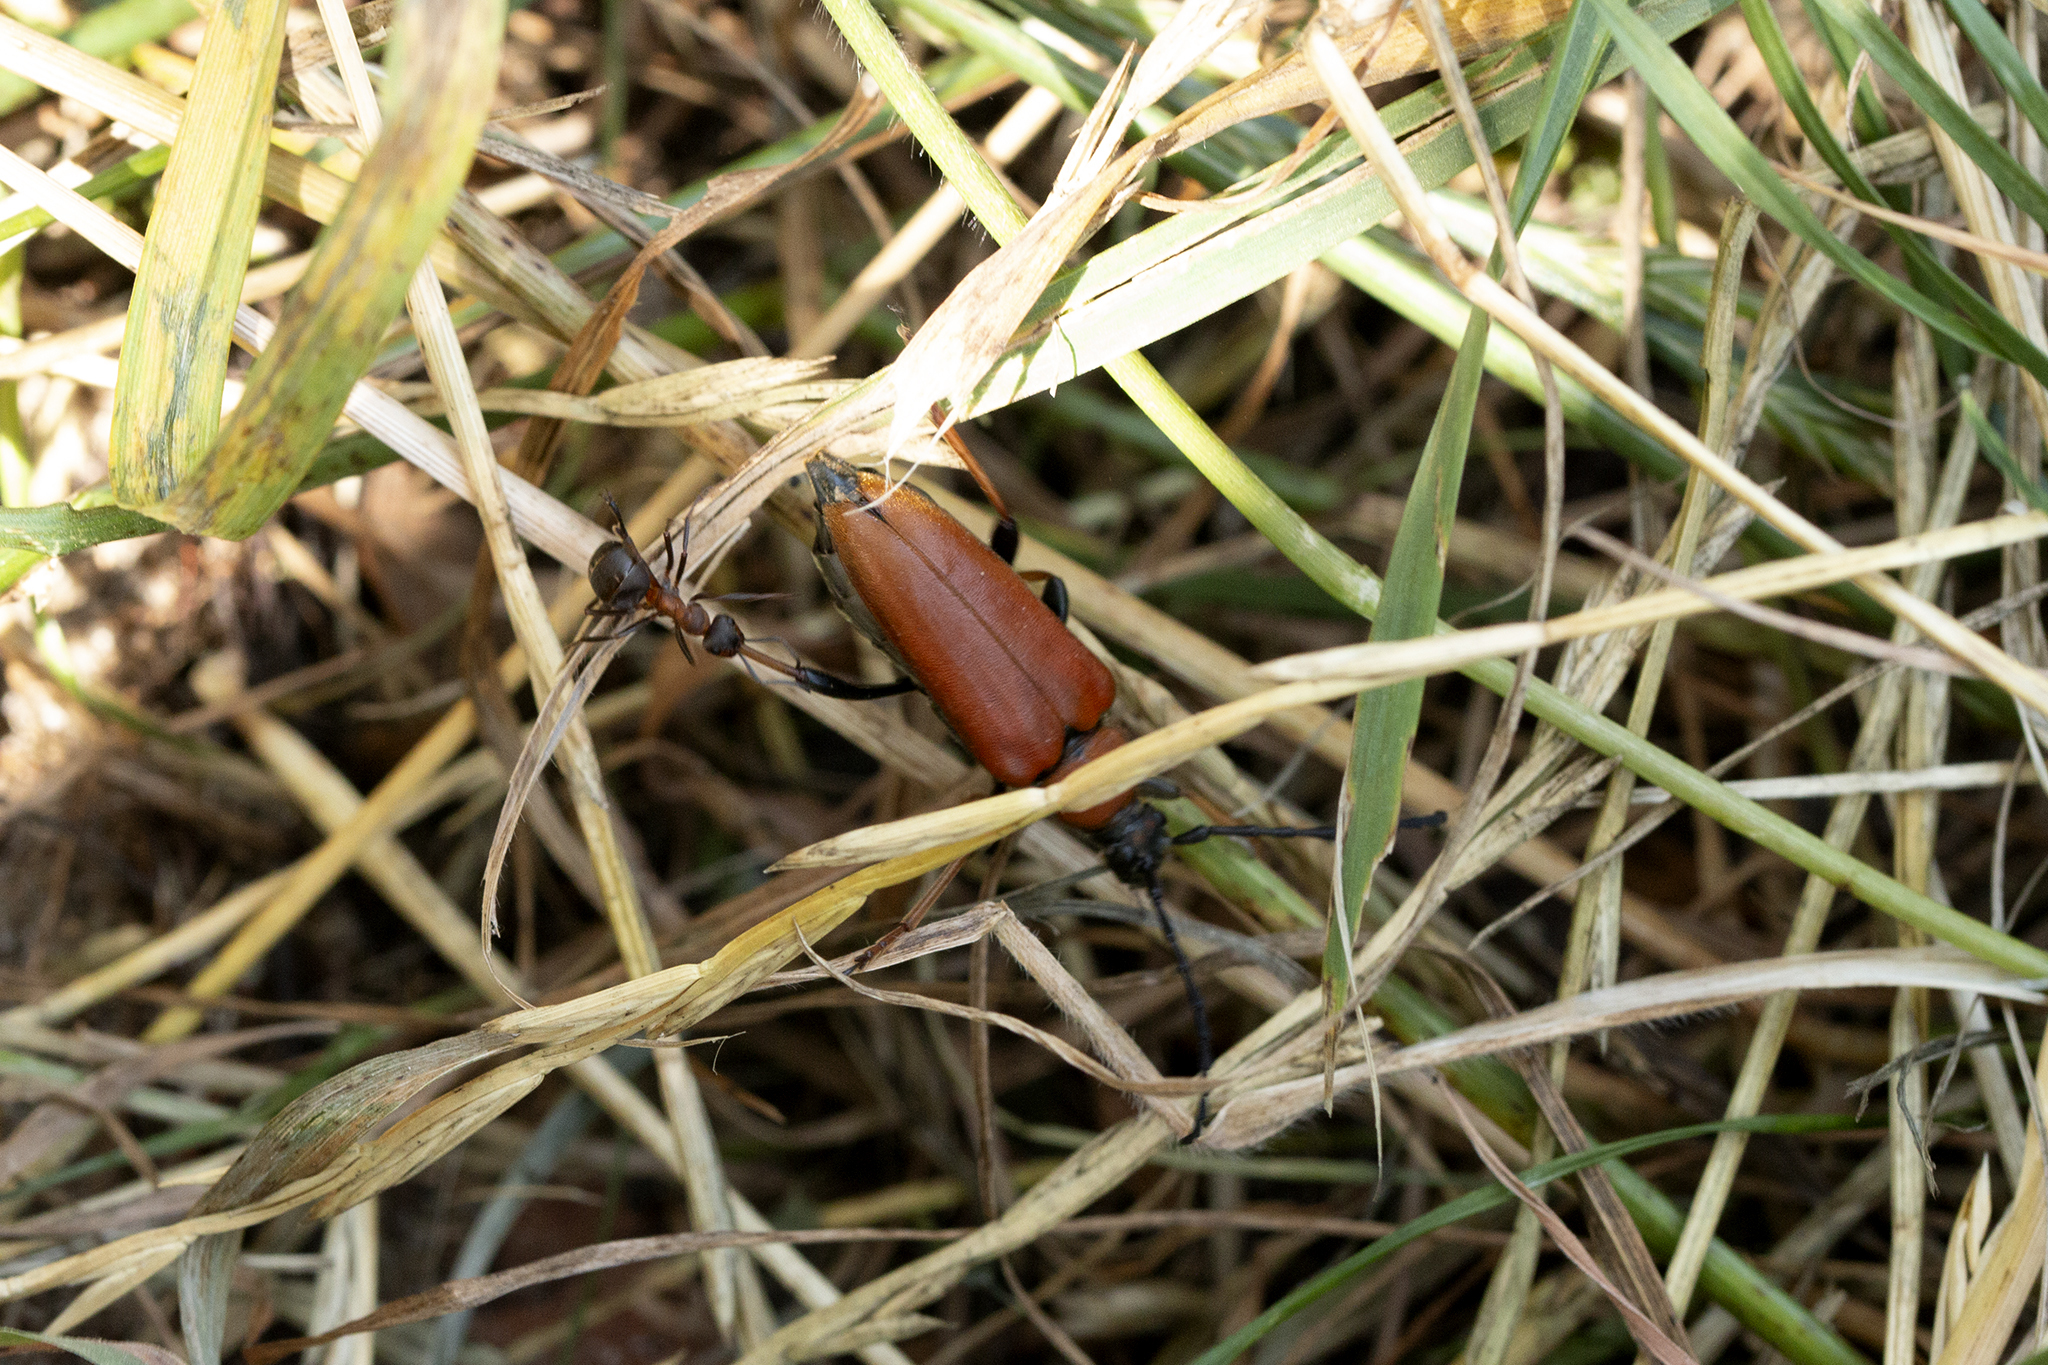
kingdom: Animalia
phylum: Arthropoda
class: Insecta
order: Coleoptera
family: Cerambycidae
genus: Stictoleptura
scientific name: Stictoleptura rubra
